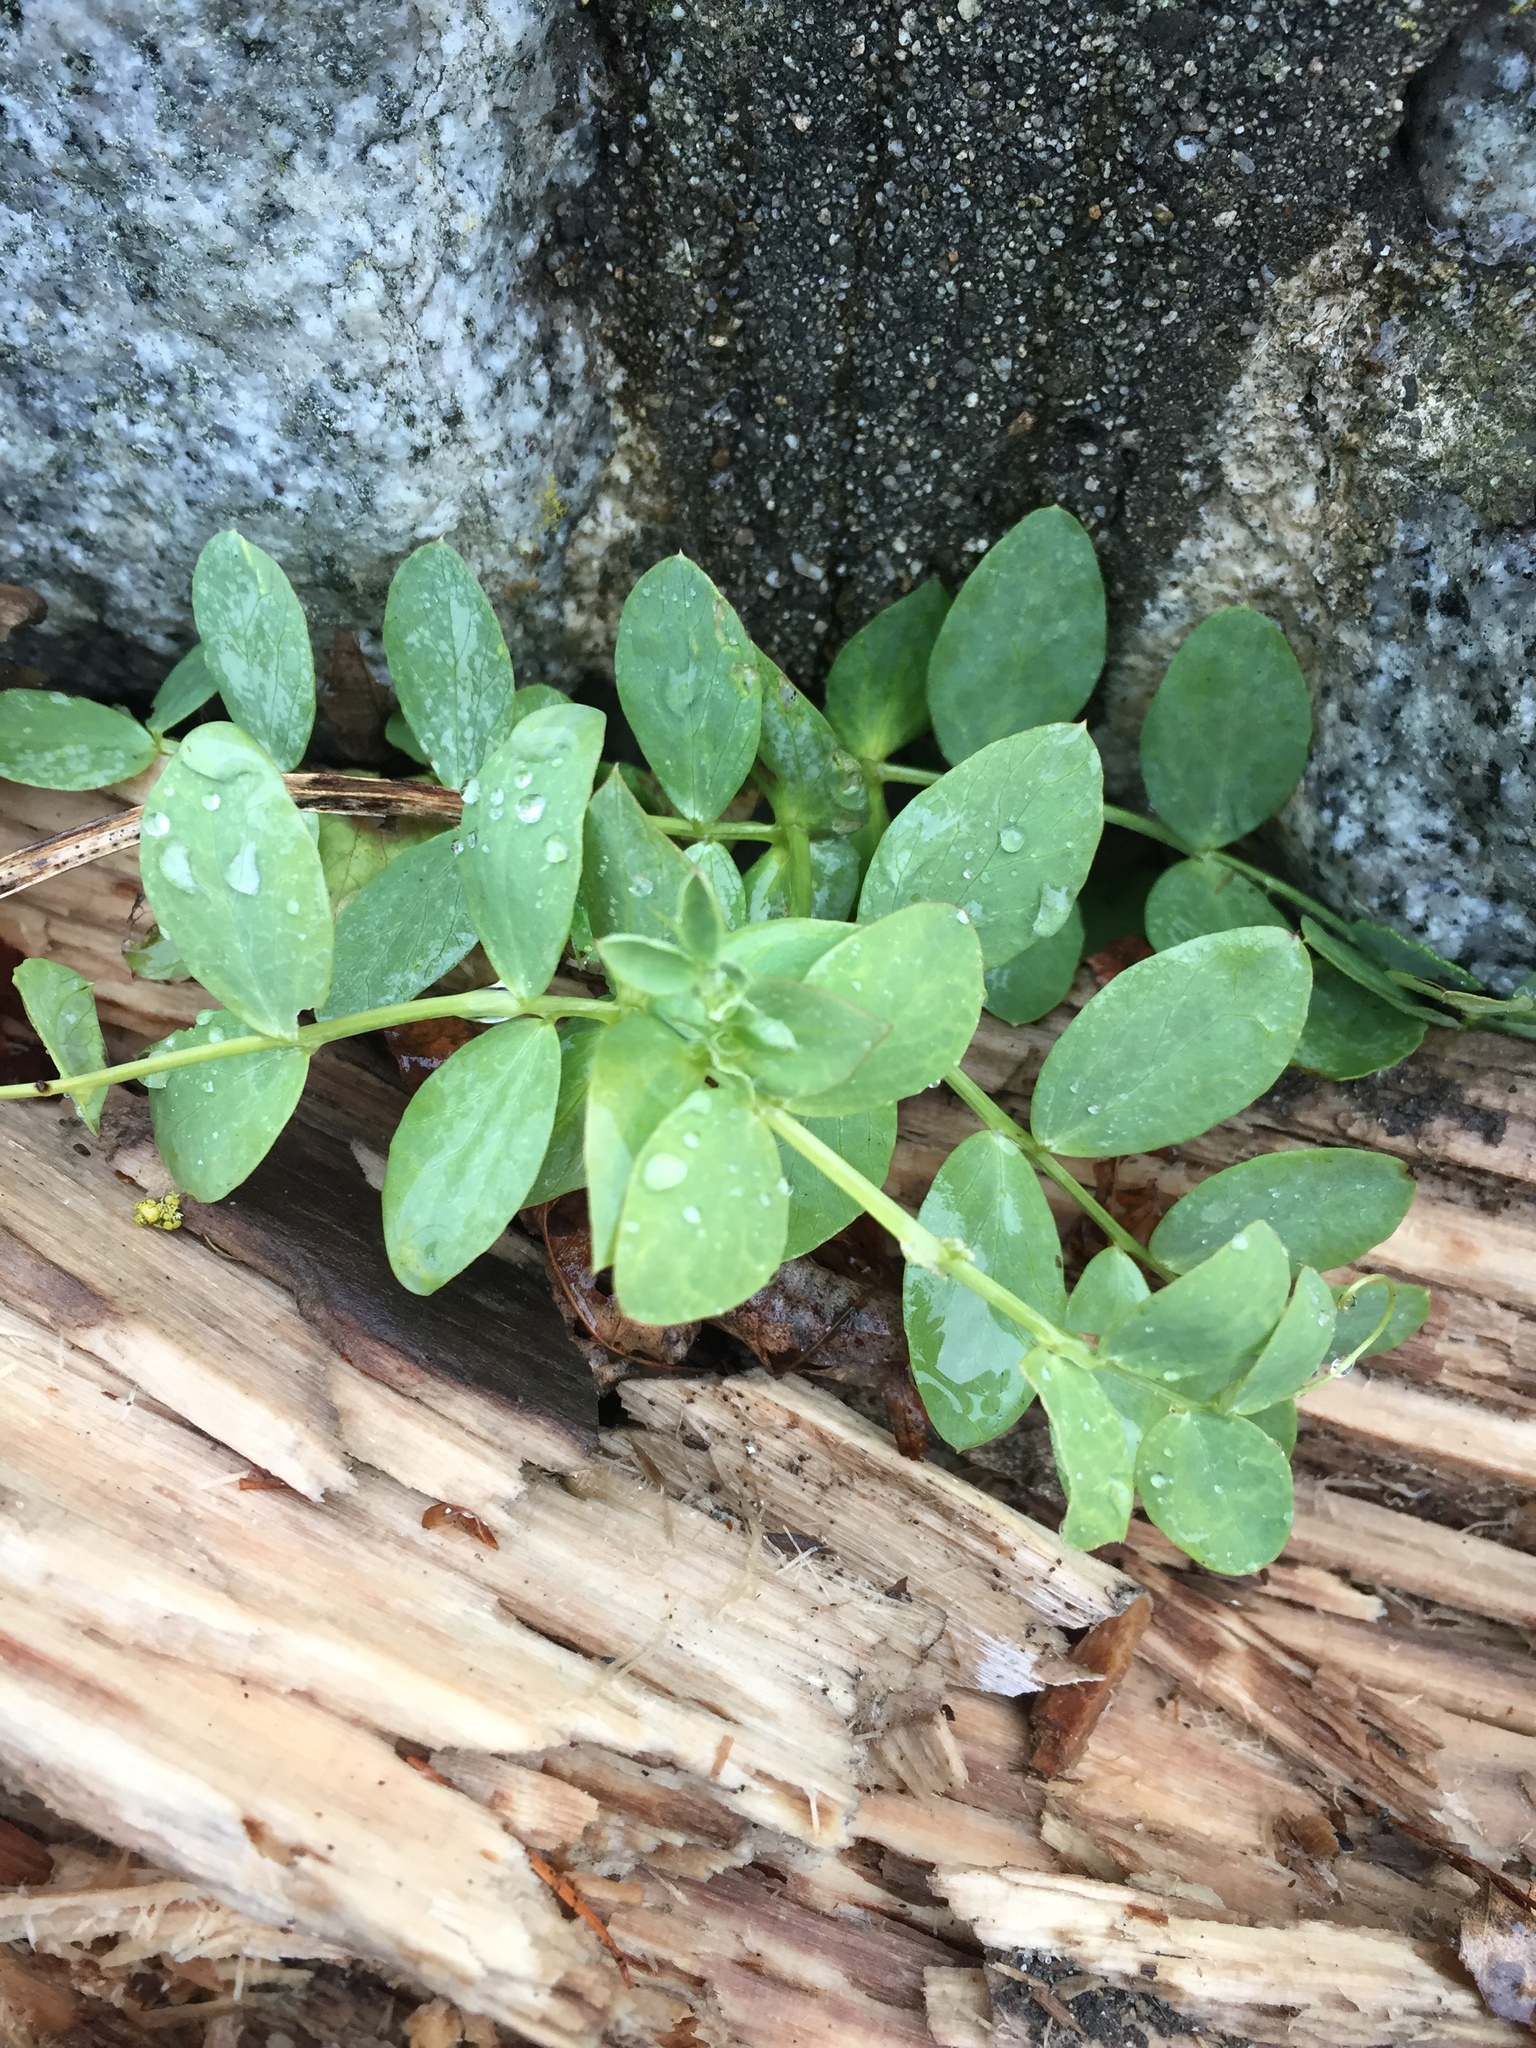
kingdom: Plantae
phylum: Tracheophyta
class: Magnoliopsida
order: Fabales
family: Fabaceae
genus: Lathyrus
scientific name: Lathyrus japonicus
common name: Sea pea
